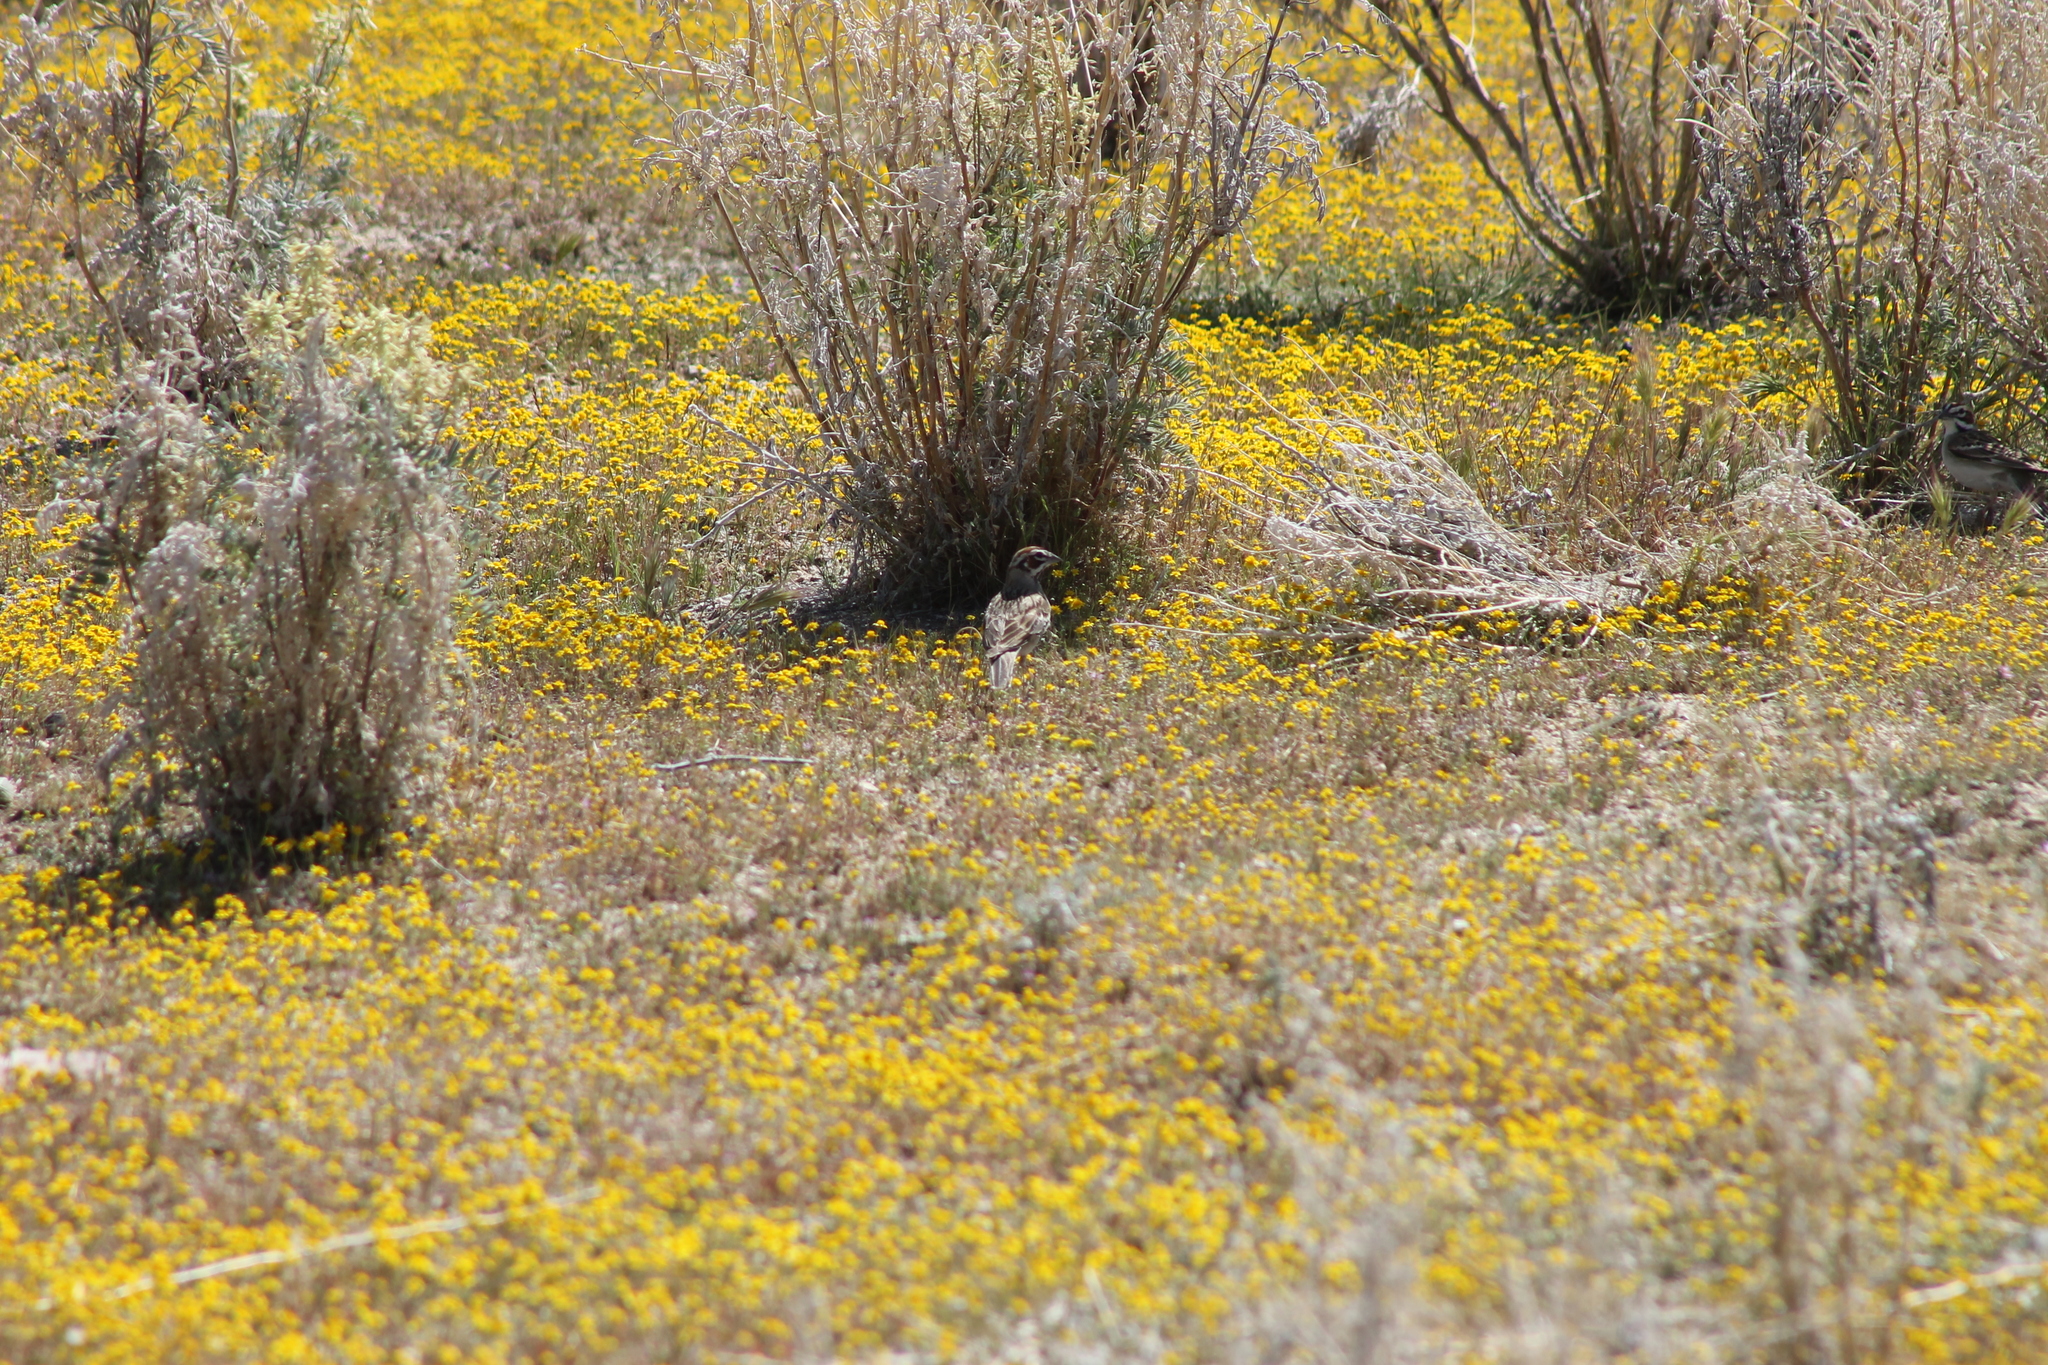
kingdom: Animalia
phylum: Chordata
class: Aves
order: Passeriformes
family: Passerellidae
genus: Chondestes
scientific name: Chondestes grammacus
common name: Lark sparrow
